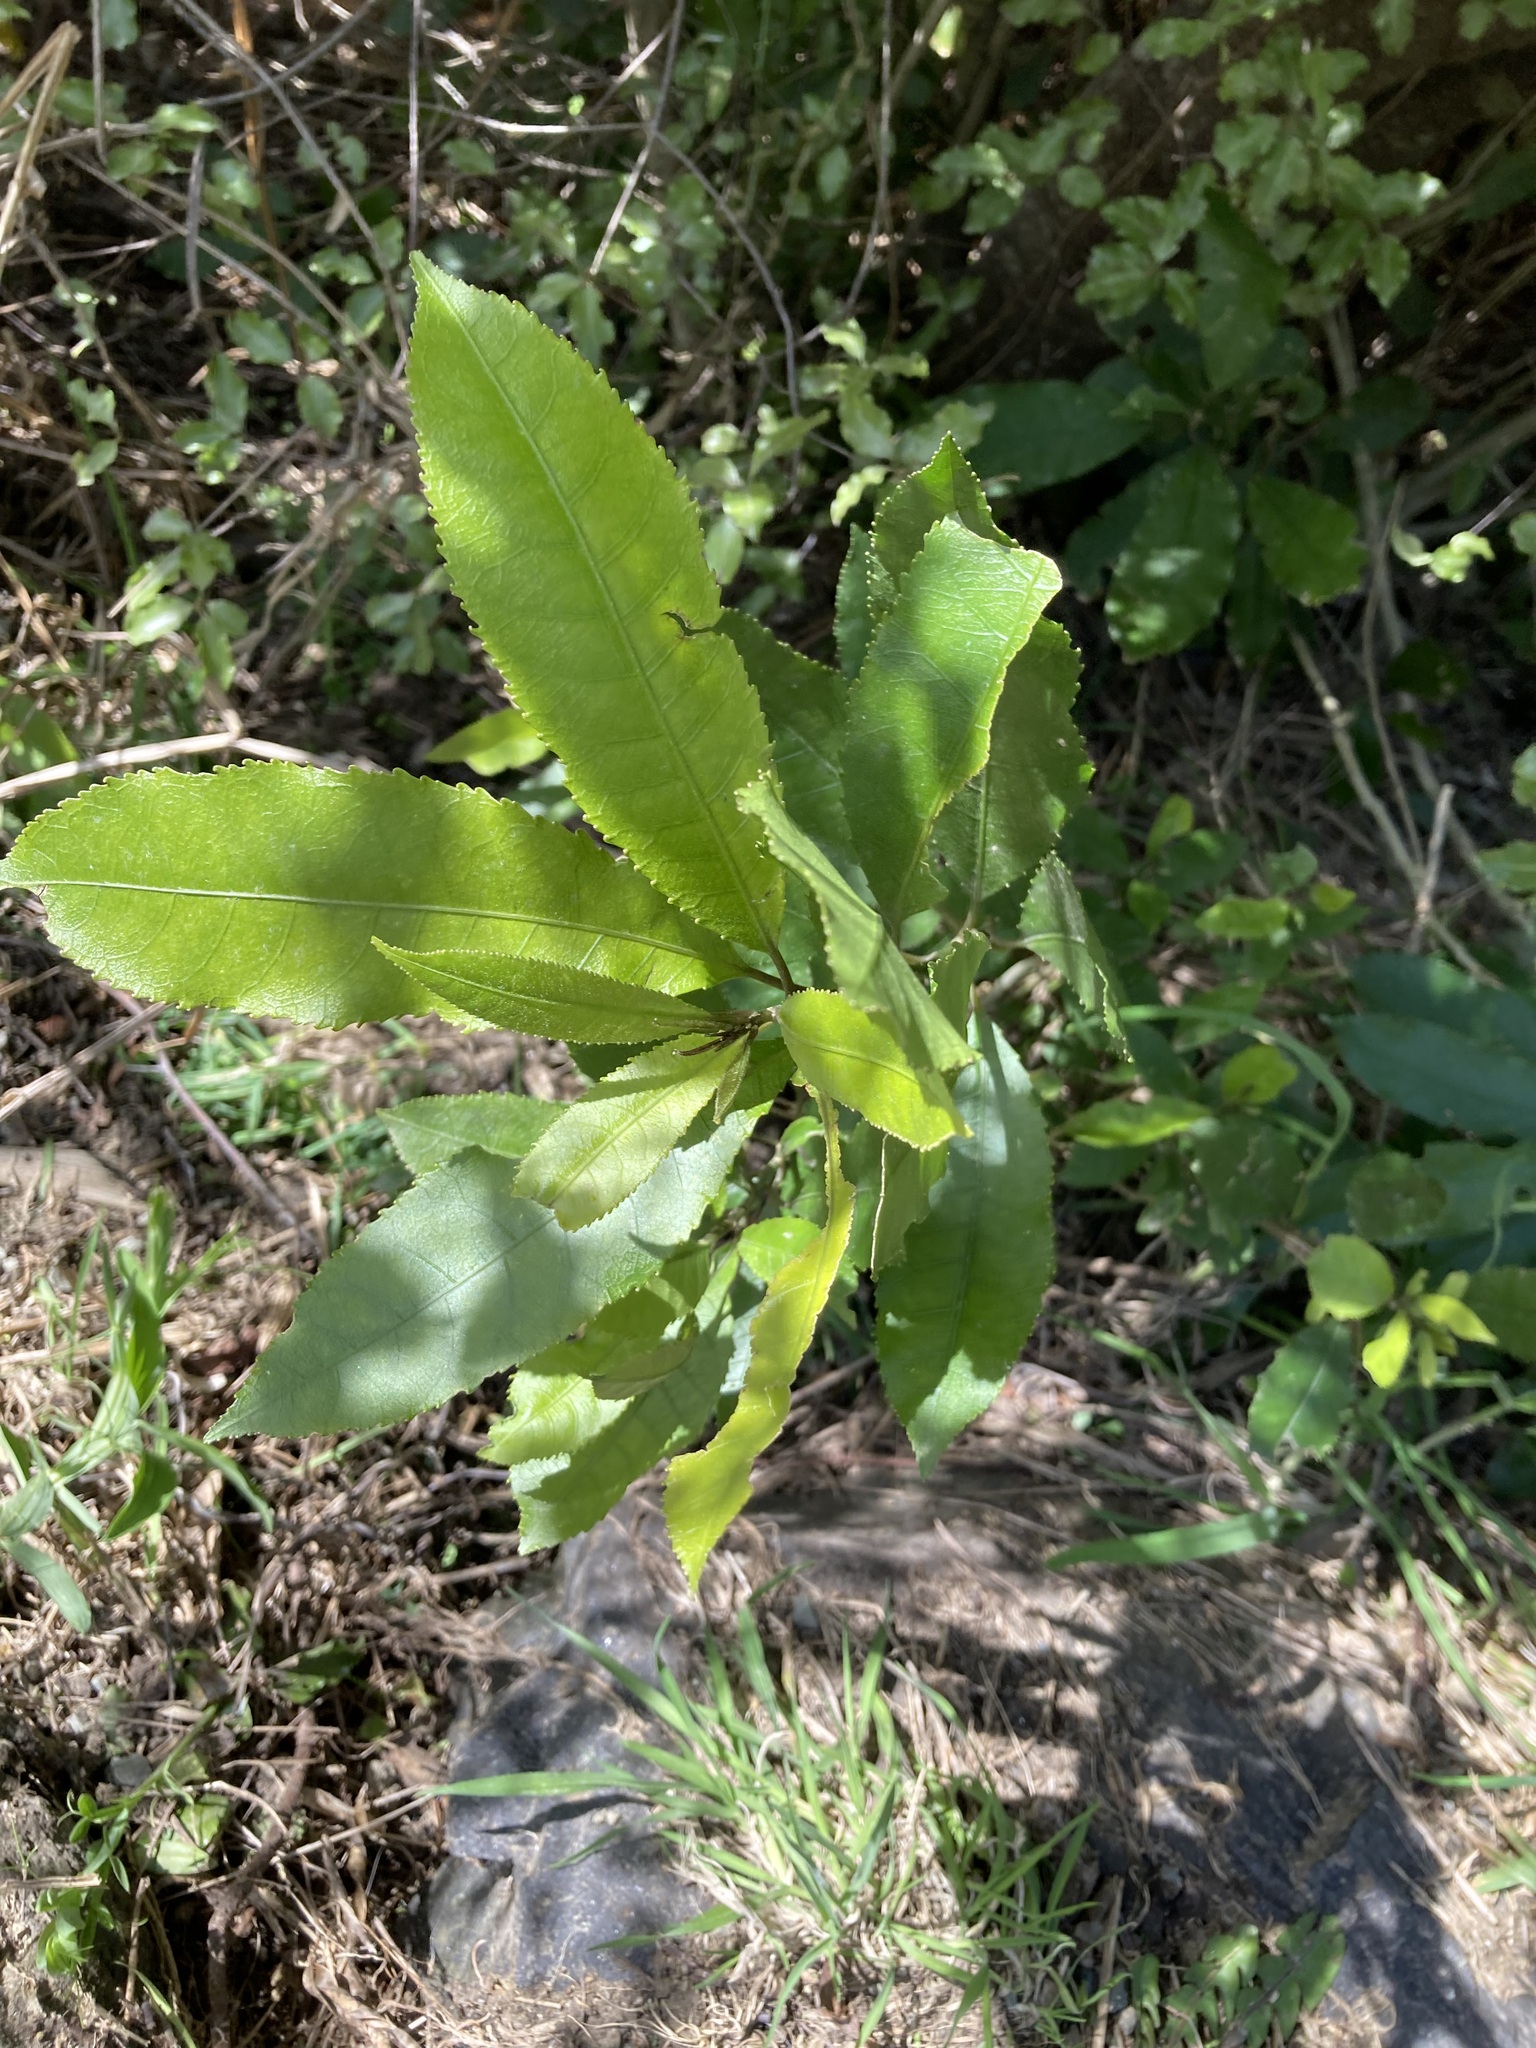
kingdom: Plantae
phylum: Tracheophyta
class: Magnoliopsida
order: Malpighiales
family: Violaceae
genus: Melicytus
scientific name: Melicytus ramiflorus
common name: Mahoe
